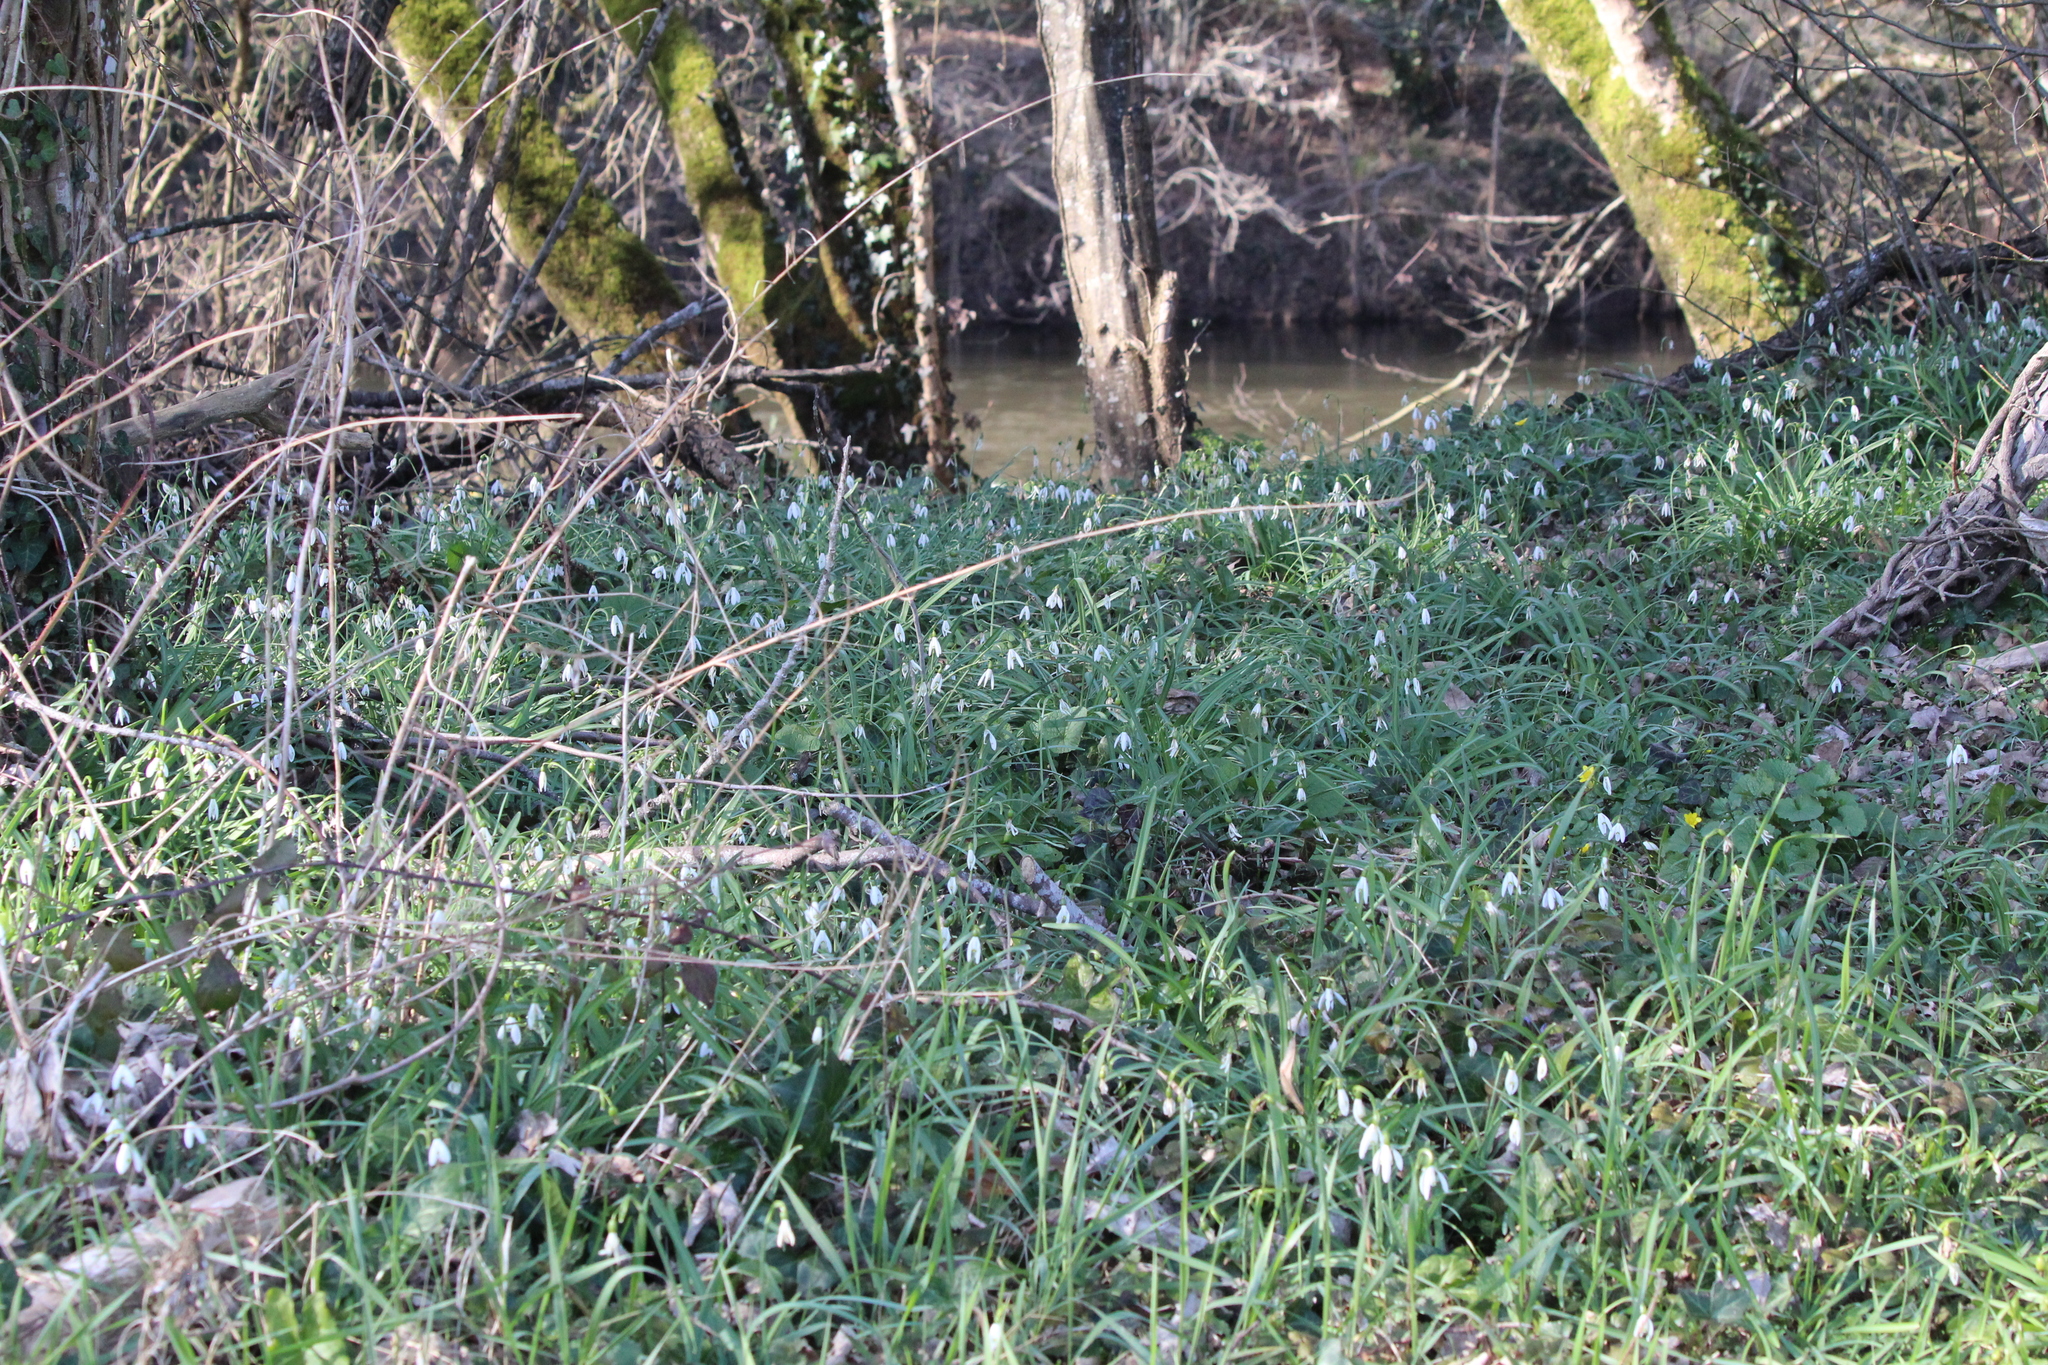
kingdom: Plantae
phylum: Tracheophyta
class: Liliopsida
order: Asparagales
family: Amaryllidaceae
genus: Galanthus
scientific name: Galanthus nivalis
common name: Snowdrop
